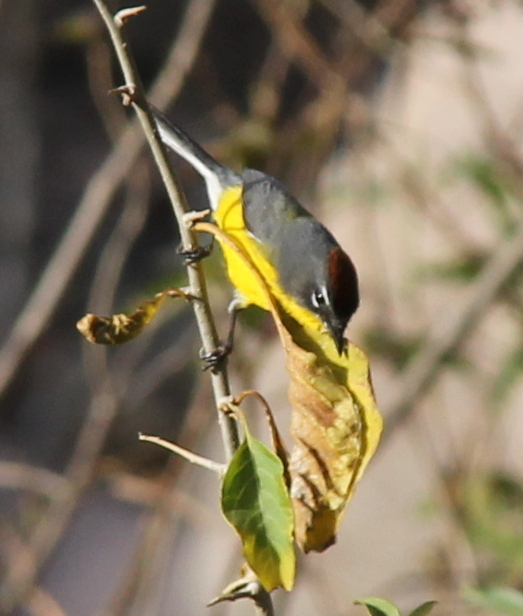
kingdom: Animalia
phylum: Chordata
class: Aves
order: Passeriformes
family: Parulidae
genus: Myioborus
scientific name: Myioborus brunniceps
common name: Brown-capped whitestart
